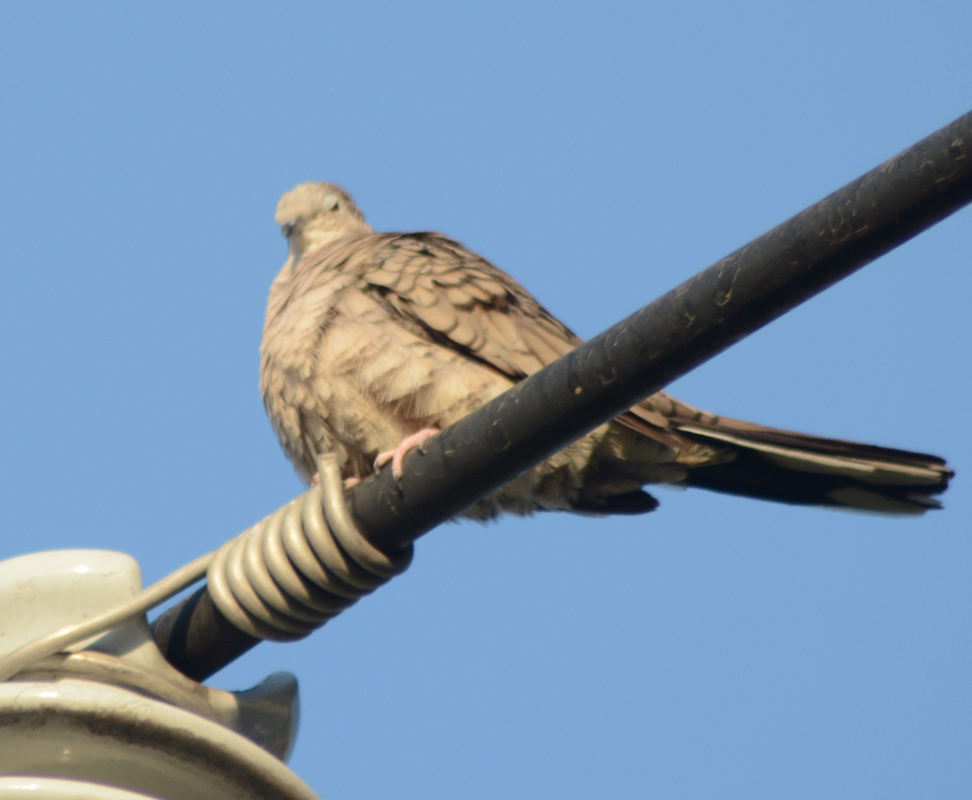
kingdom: Animalia
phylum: Chordata
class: Aves
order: Columbiformes
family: Columbidae
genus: Columbina
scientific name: Columbina inca
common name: Inca dove
